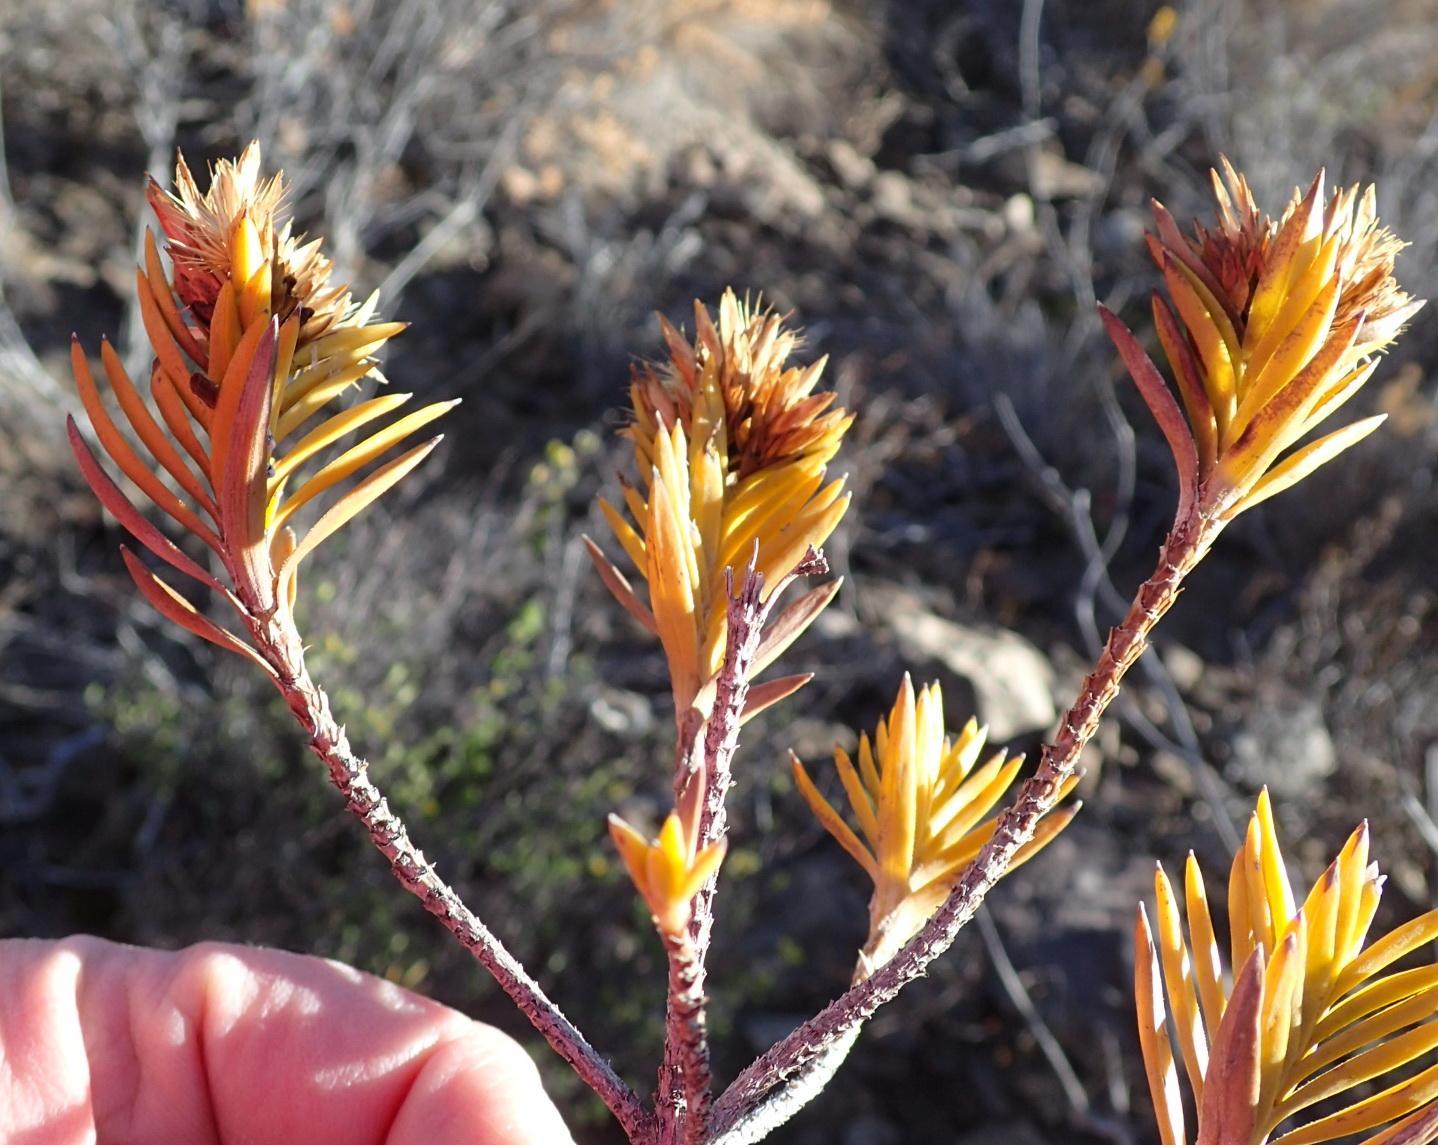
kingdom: Plantae
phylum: Tracheophyta
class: Magnoliopsida
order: Asterales
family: Asteraceae
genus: Pteronia
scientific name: Pteronia fasciculata
